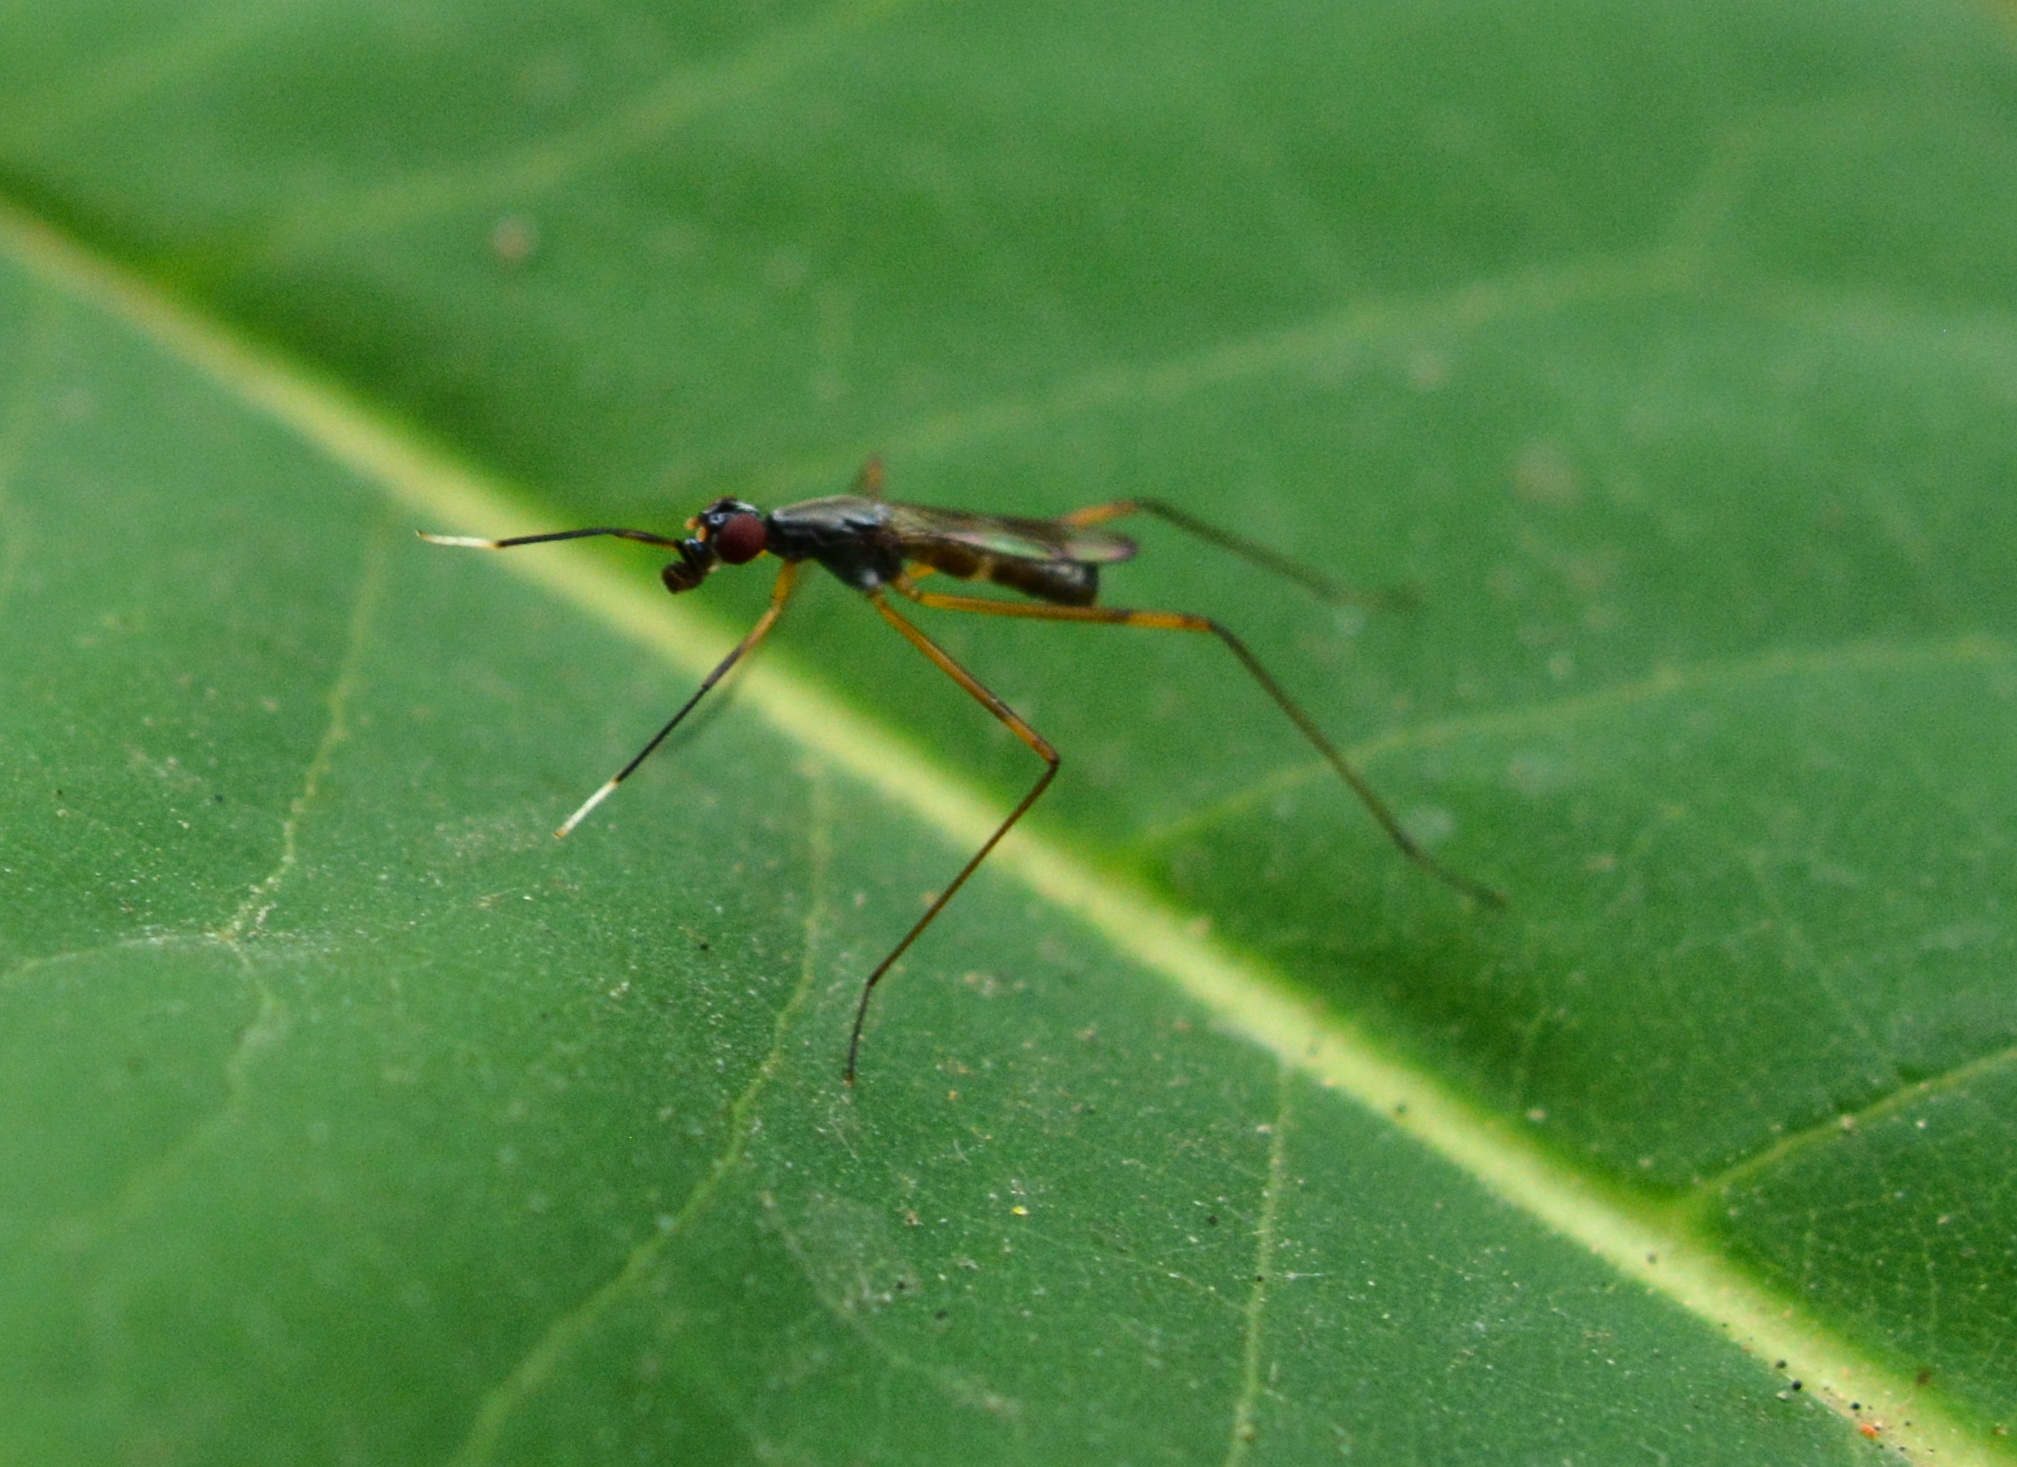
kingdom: Animalia
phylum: Arthropoda
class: Insecta
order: Diptera
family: Micropezidae
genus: Rainieria
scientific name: Rainieria antennaepes
